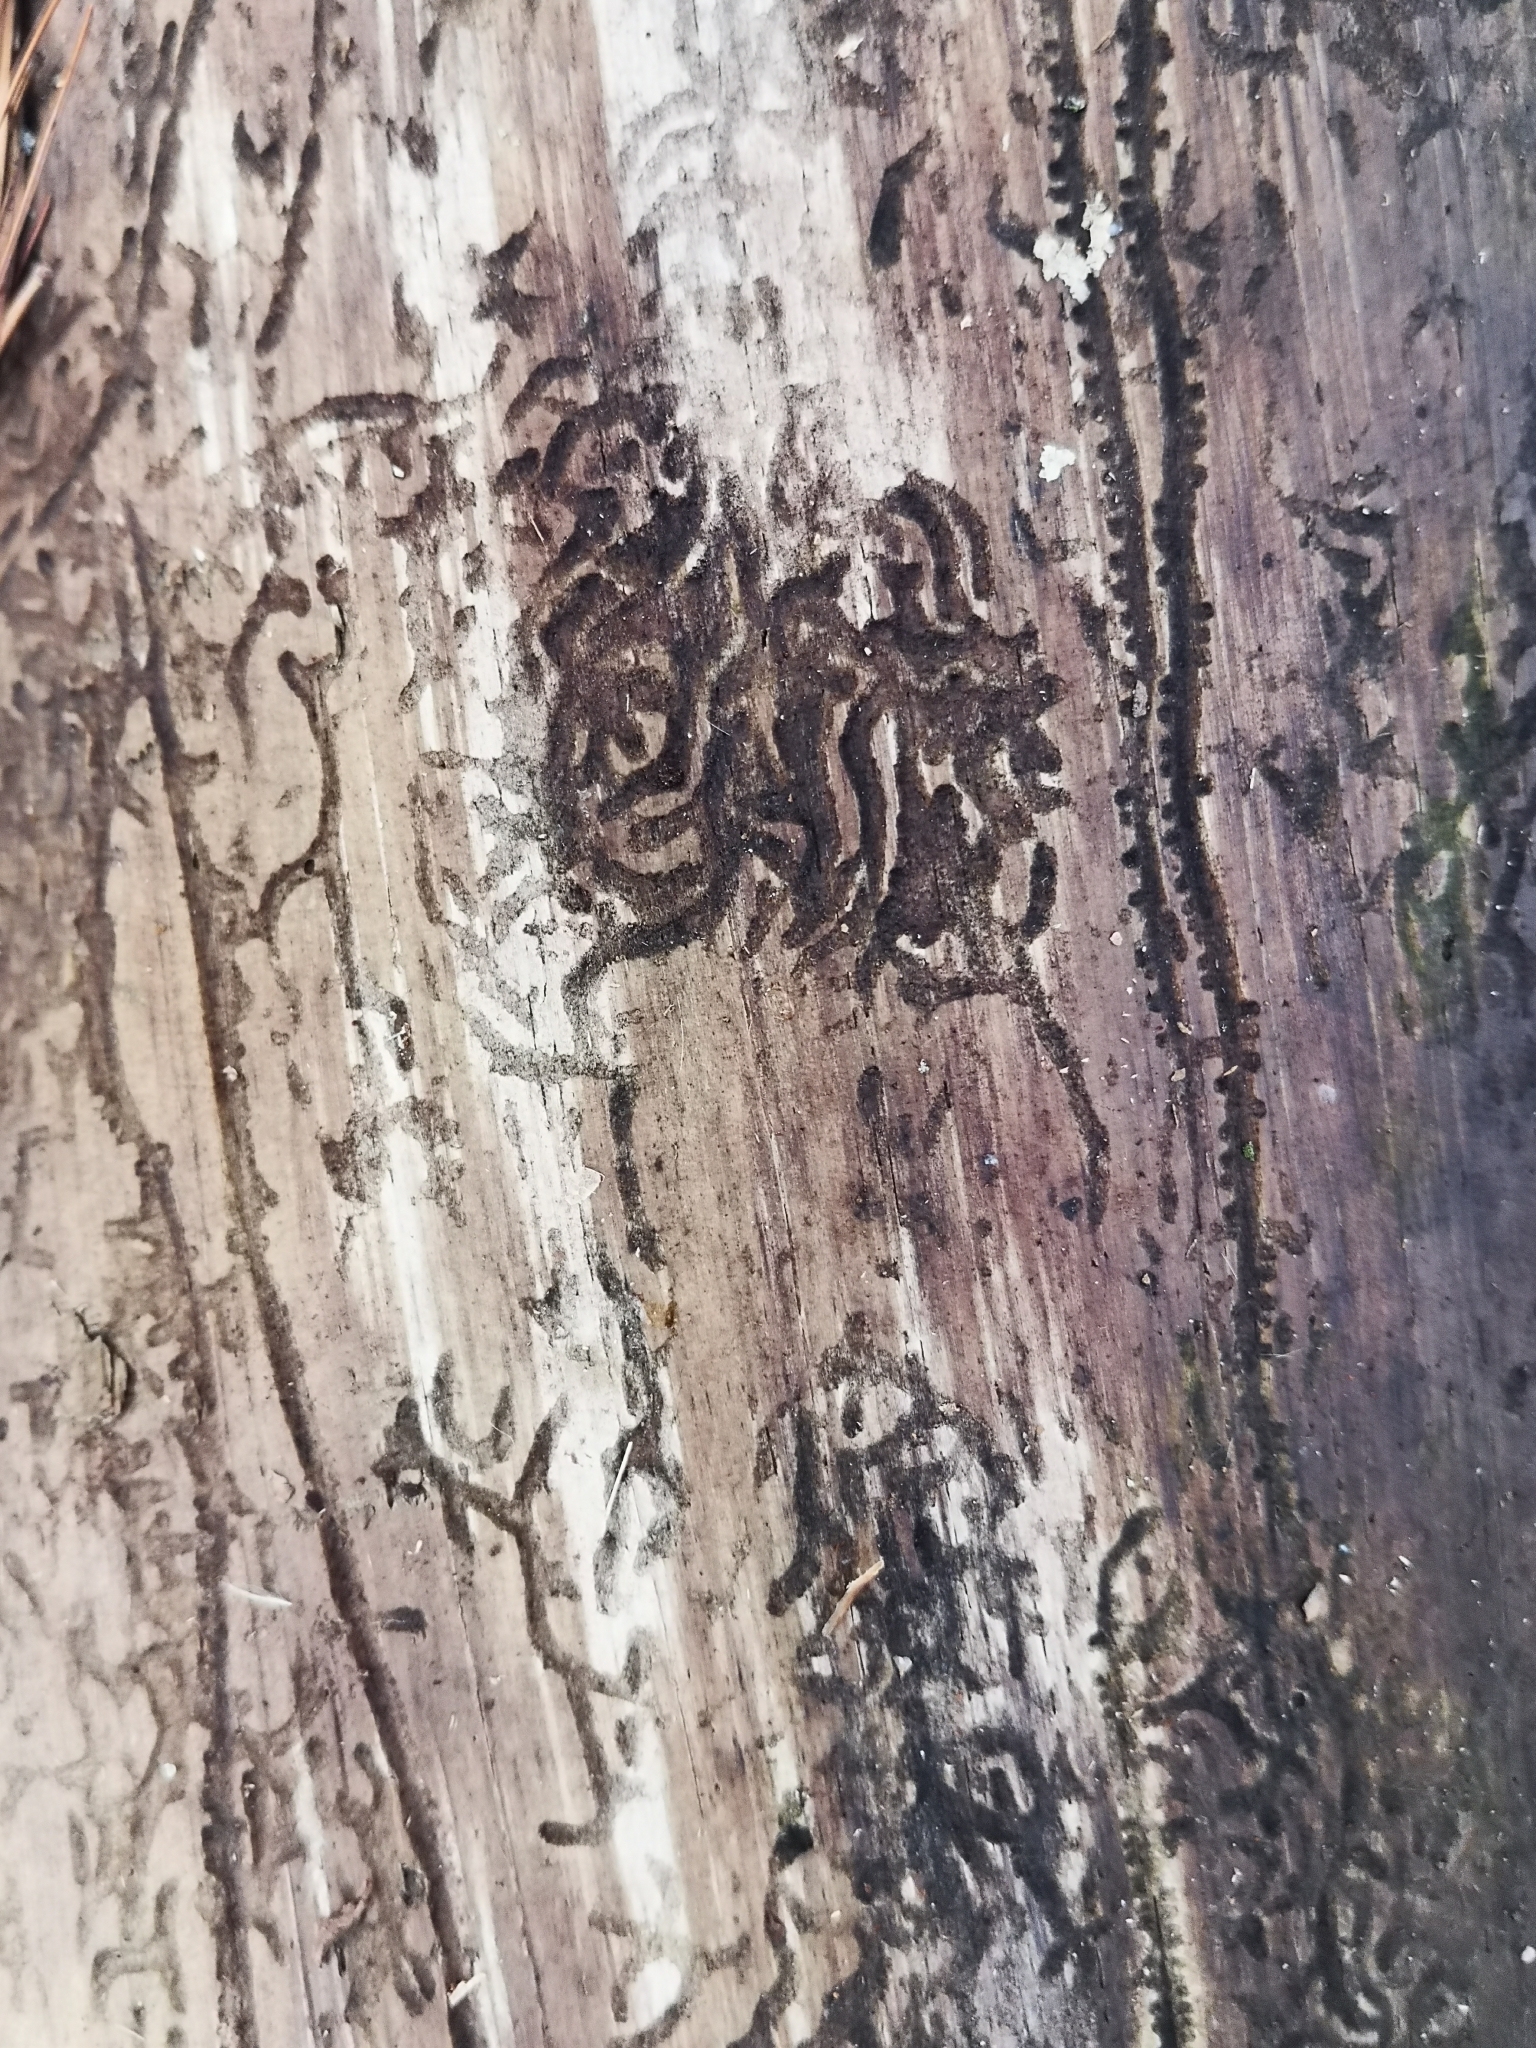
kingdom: Animalia
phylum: Arthropoda
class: Insecta
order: Coleoptera
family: Cerambycidae
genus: Stictoleptura
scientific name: Stictoleptura canadensis
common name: Red-shouldered pine borer
